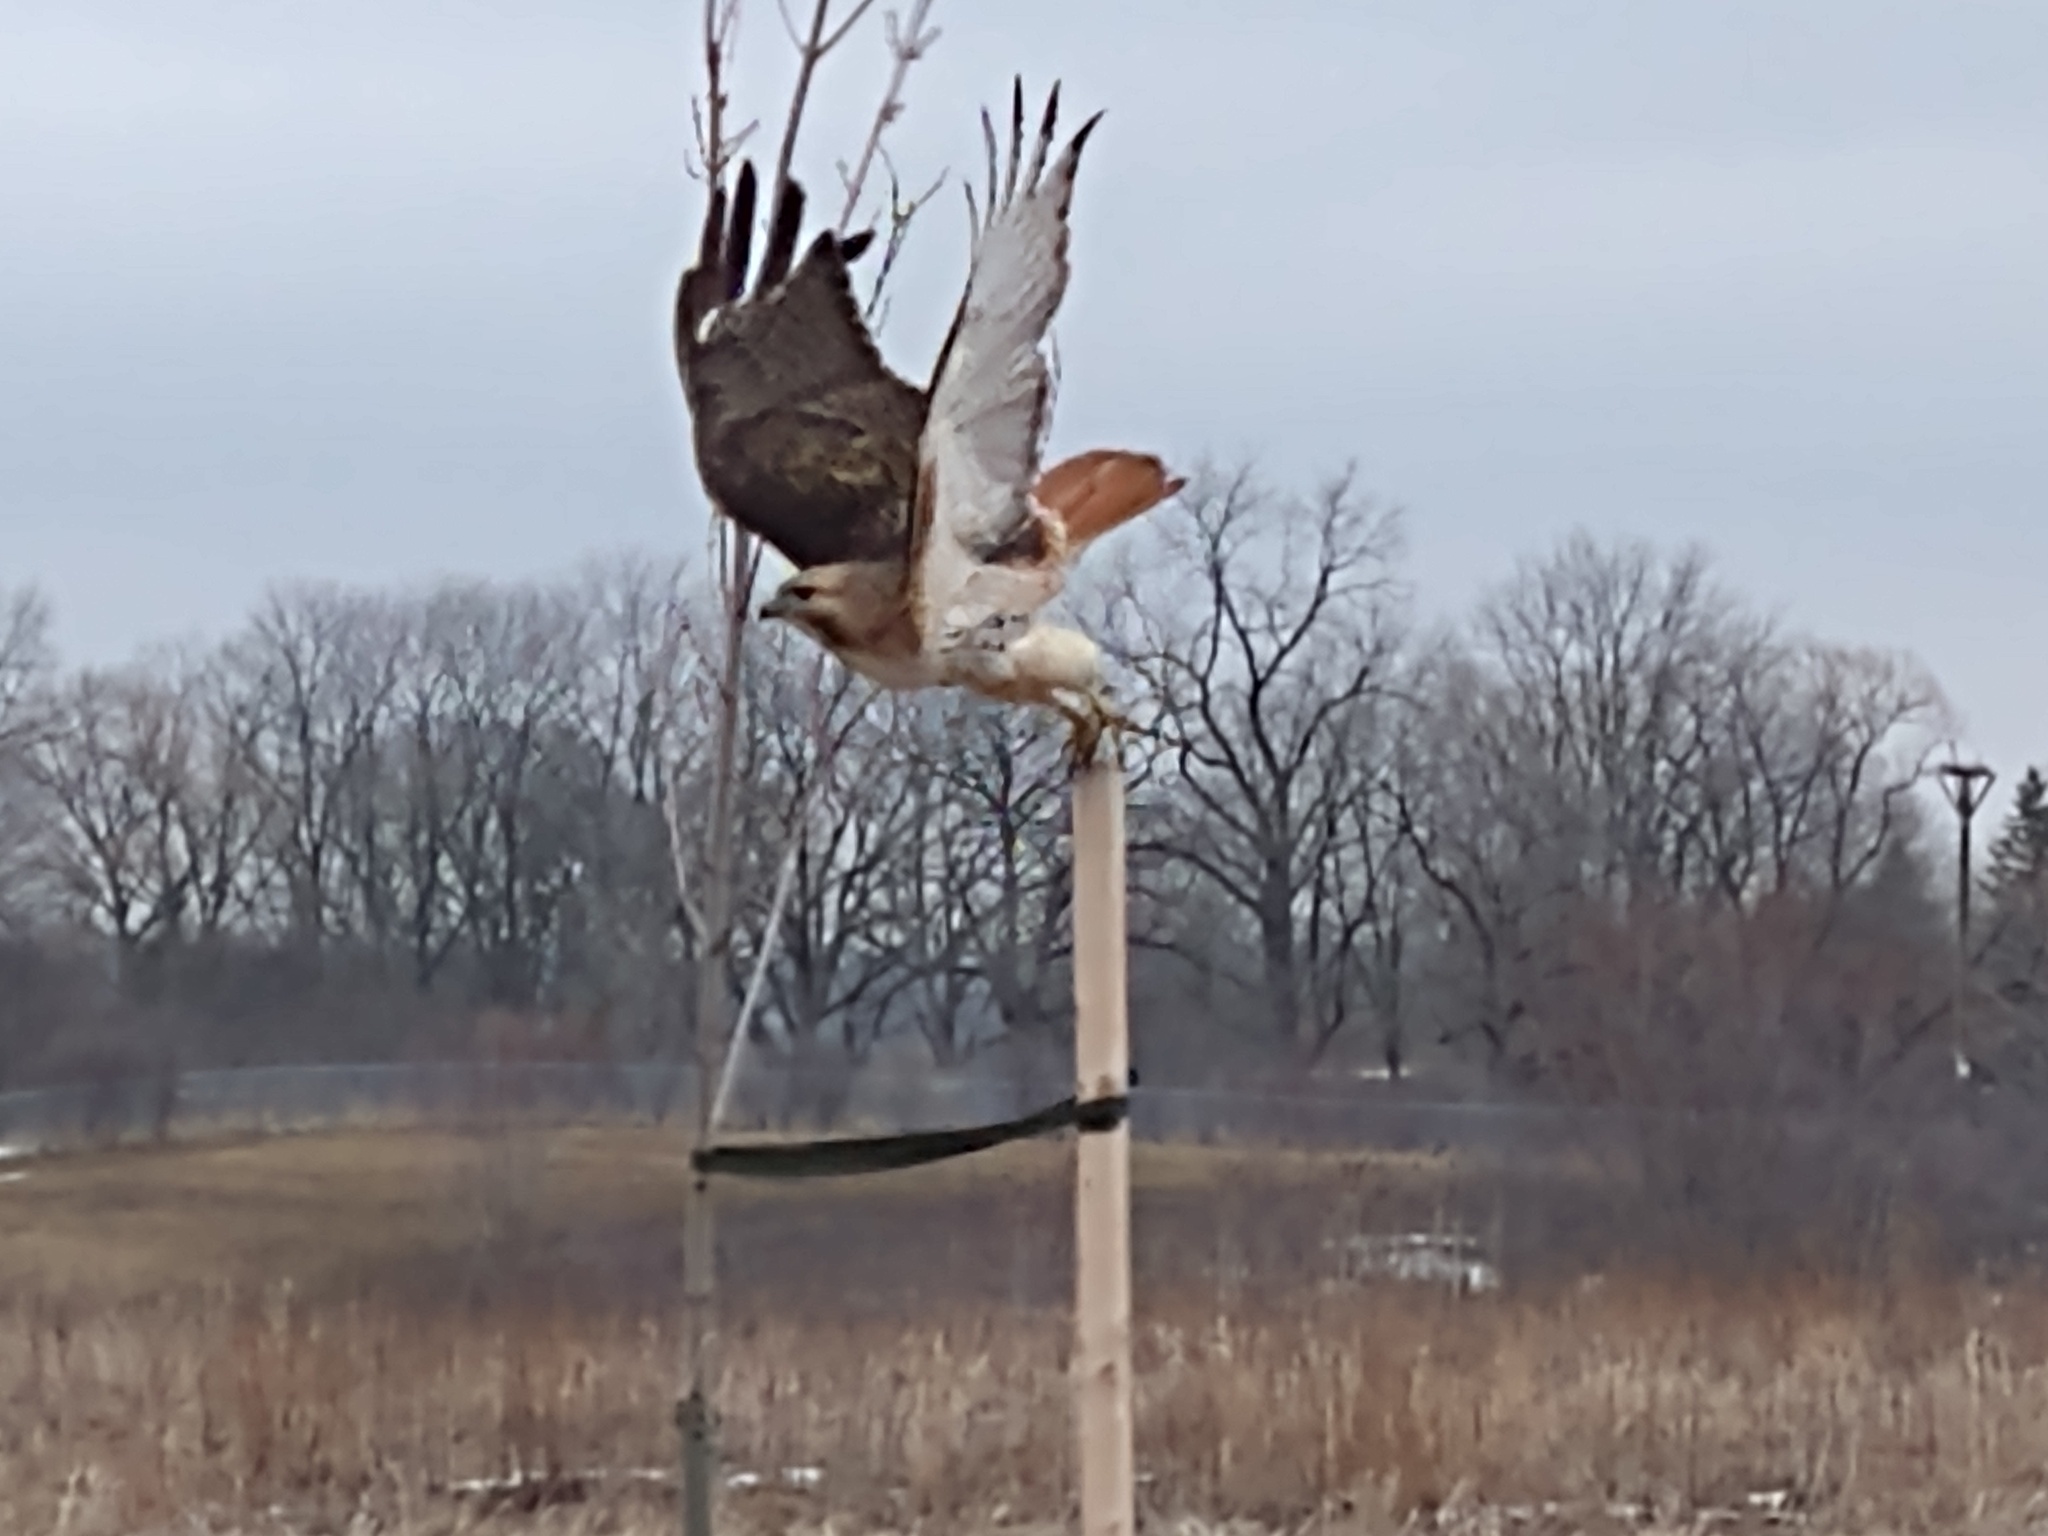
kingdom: Animalia
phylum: Chordata
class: Aves
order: Accipitriformes
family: Accipitridae
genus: Buteo
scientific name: Buteo jamaicensis
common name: Red-tailed hawk
